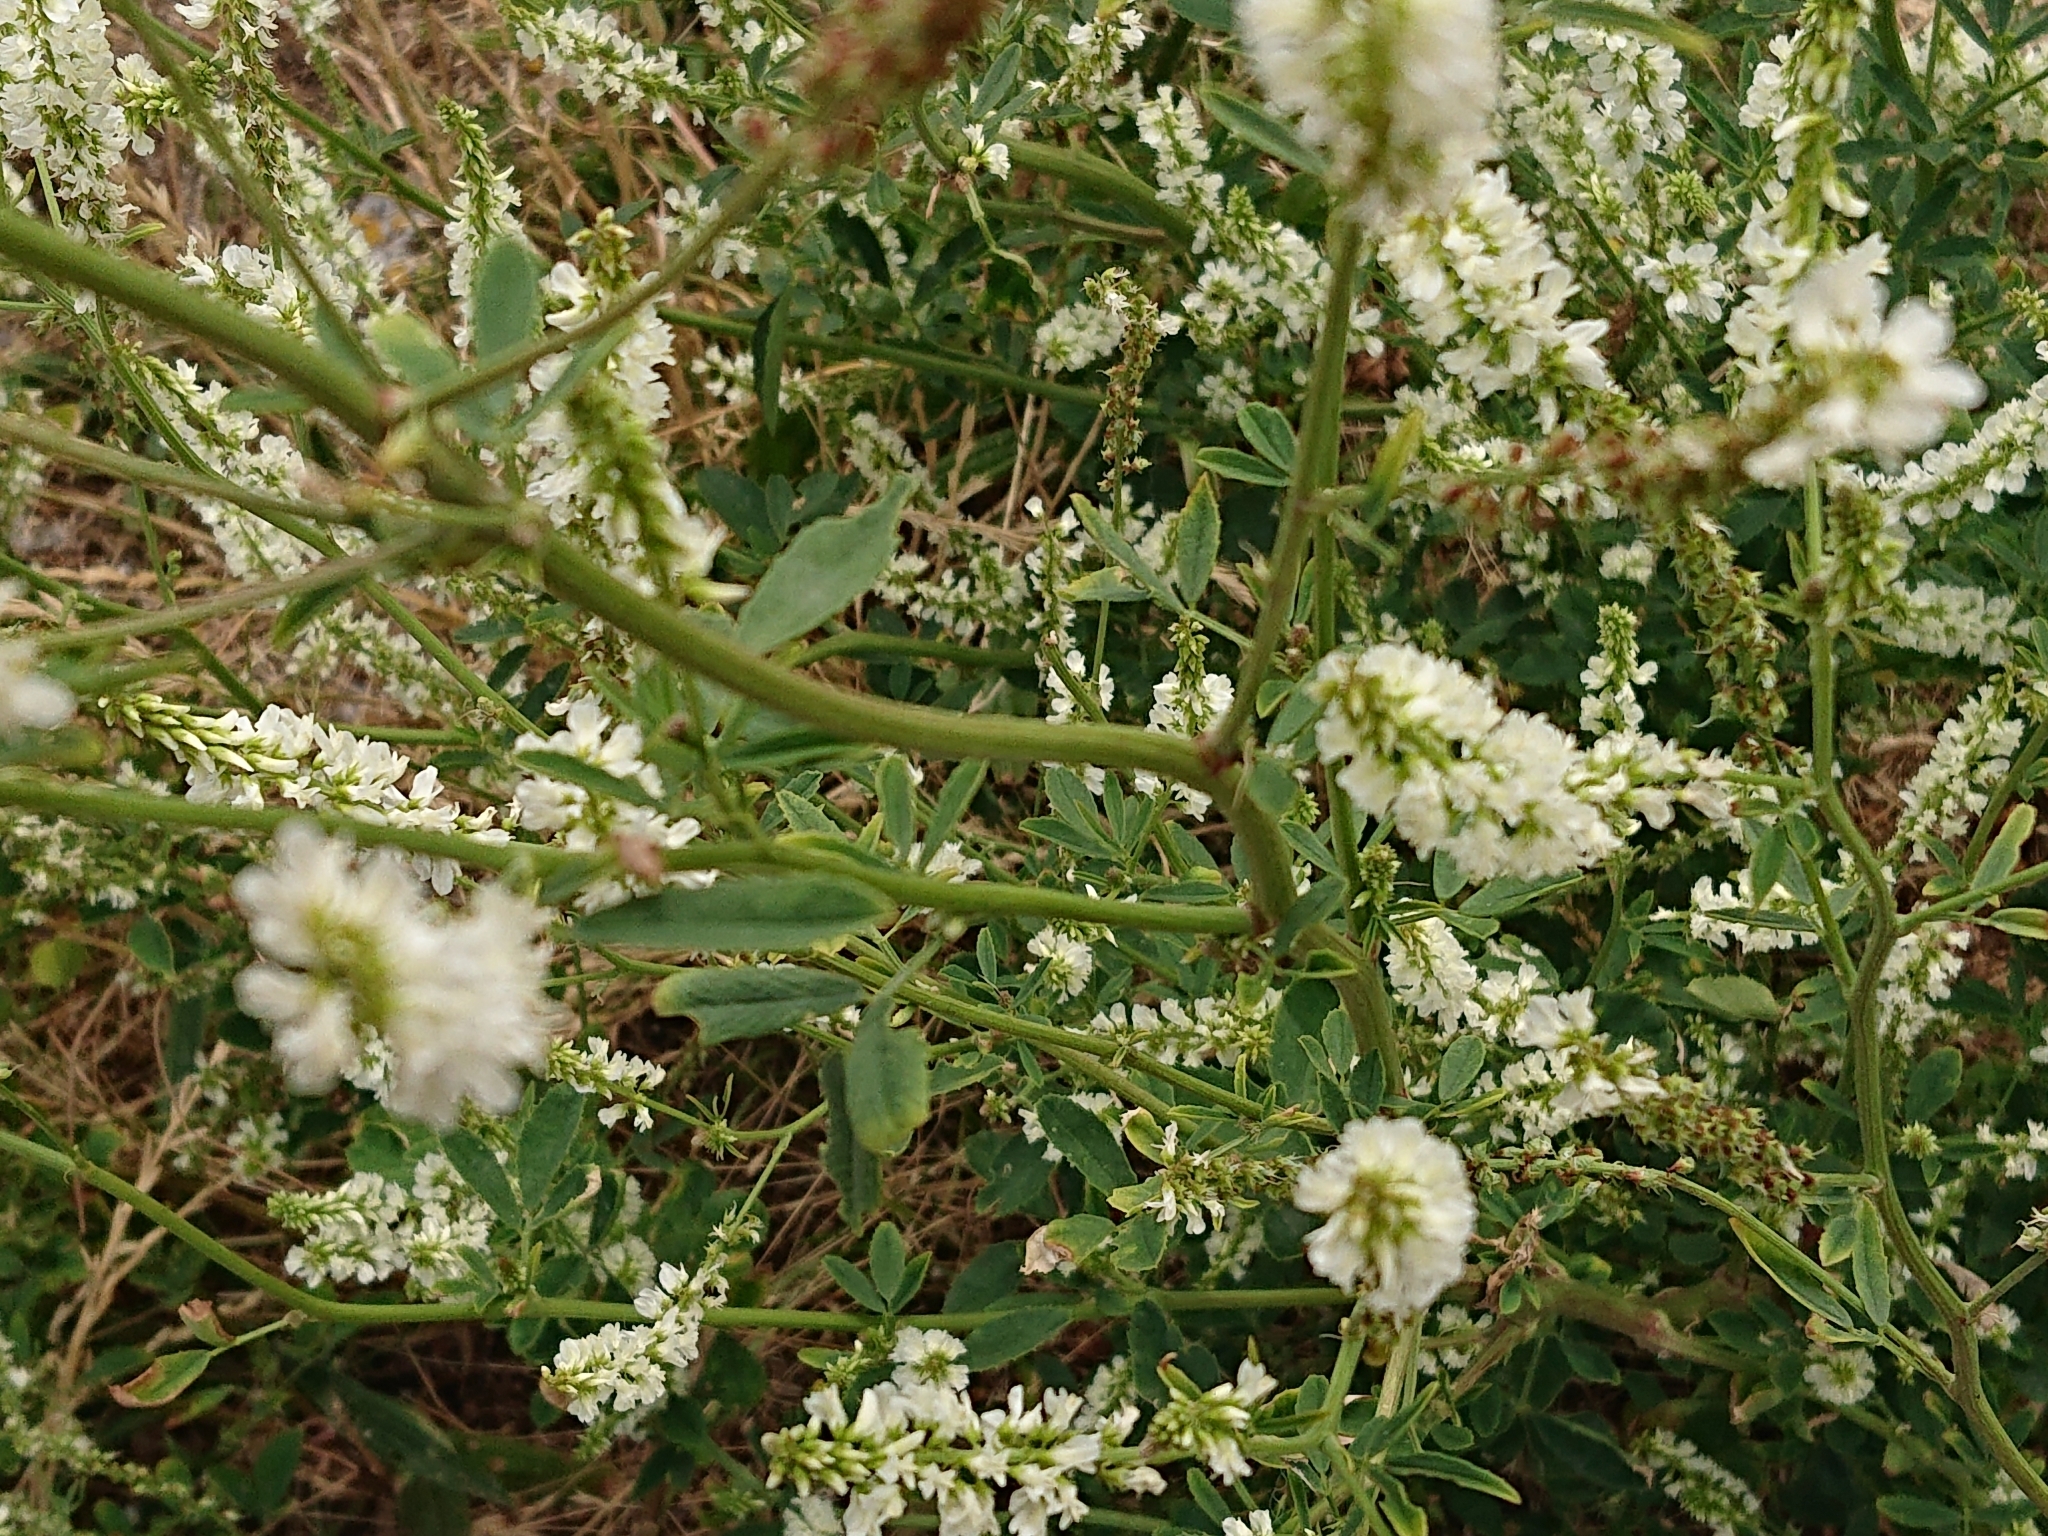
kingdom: Plantae
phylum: Tracheophyta
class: Magnoliopsida
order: Fabales
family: Fabaceae
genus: Melilotus
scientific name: Melilotus albus
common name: White melilot
